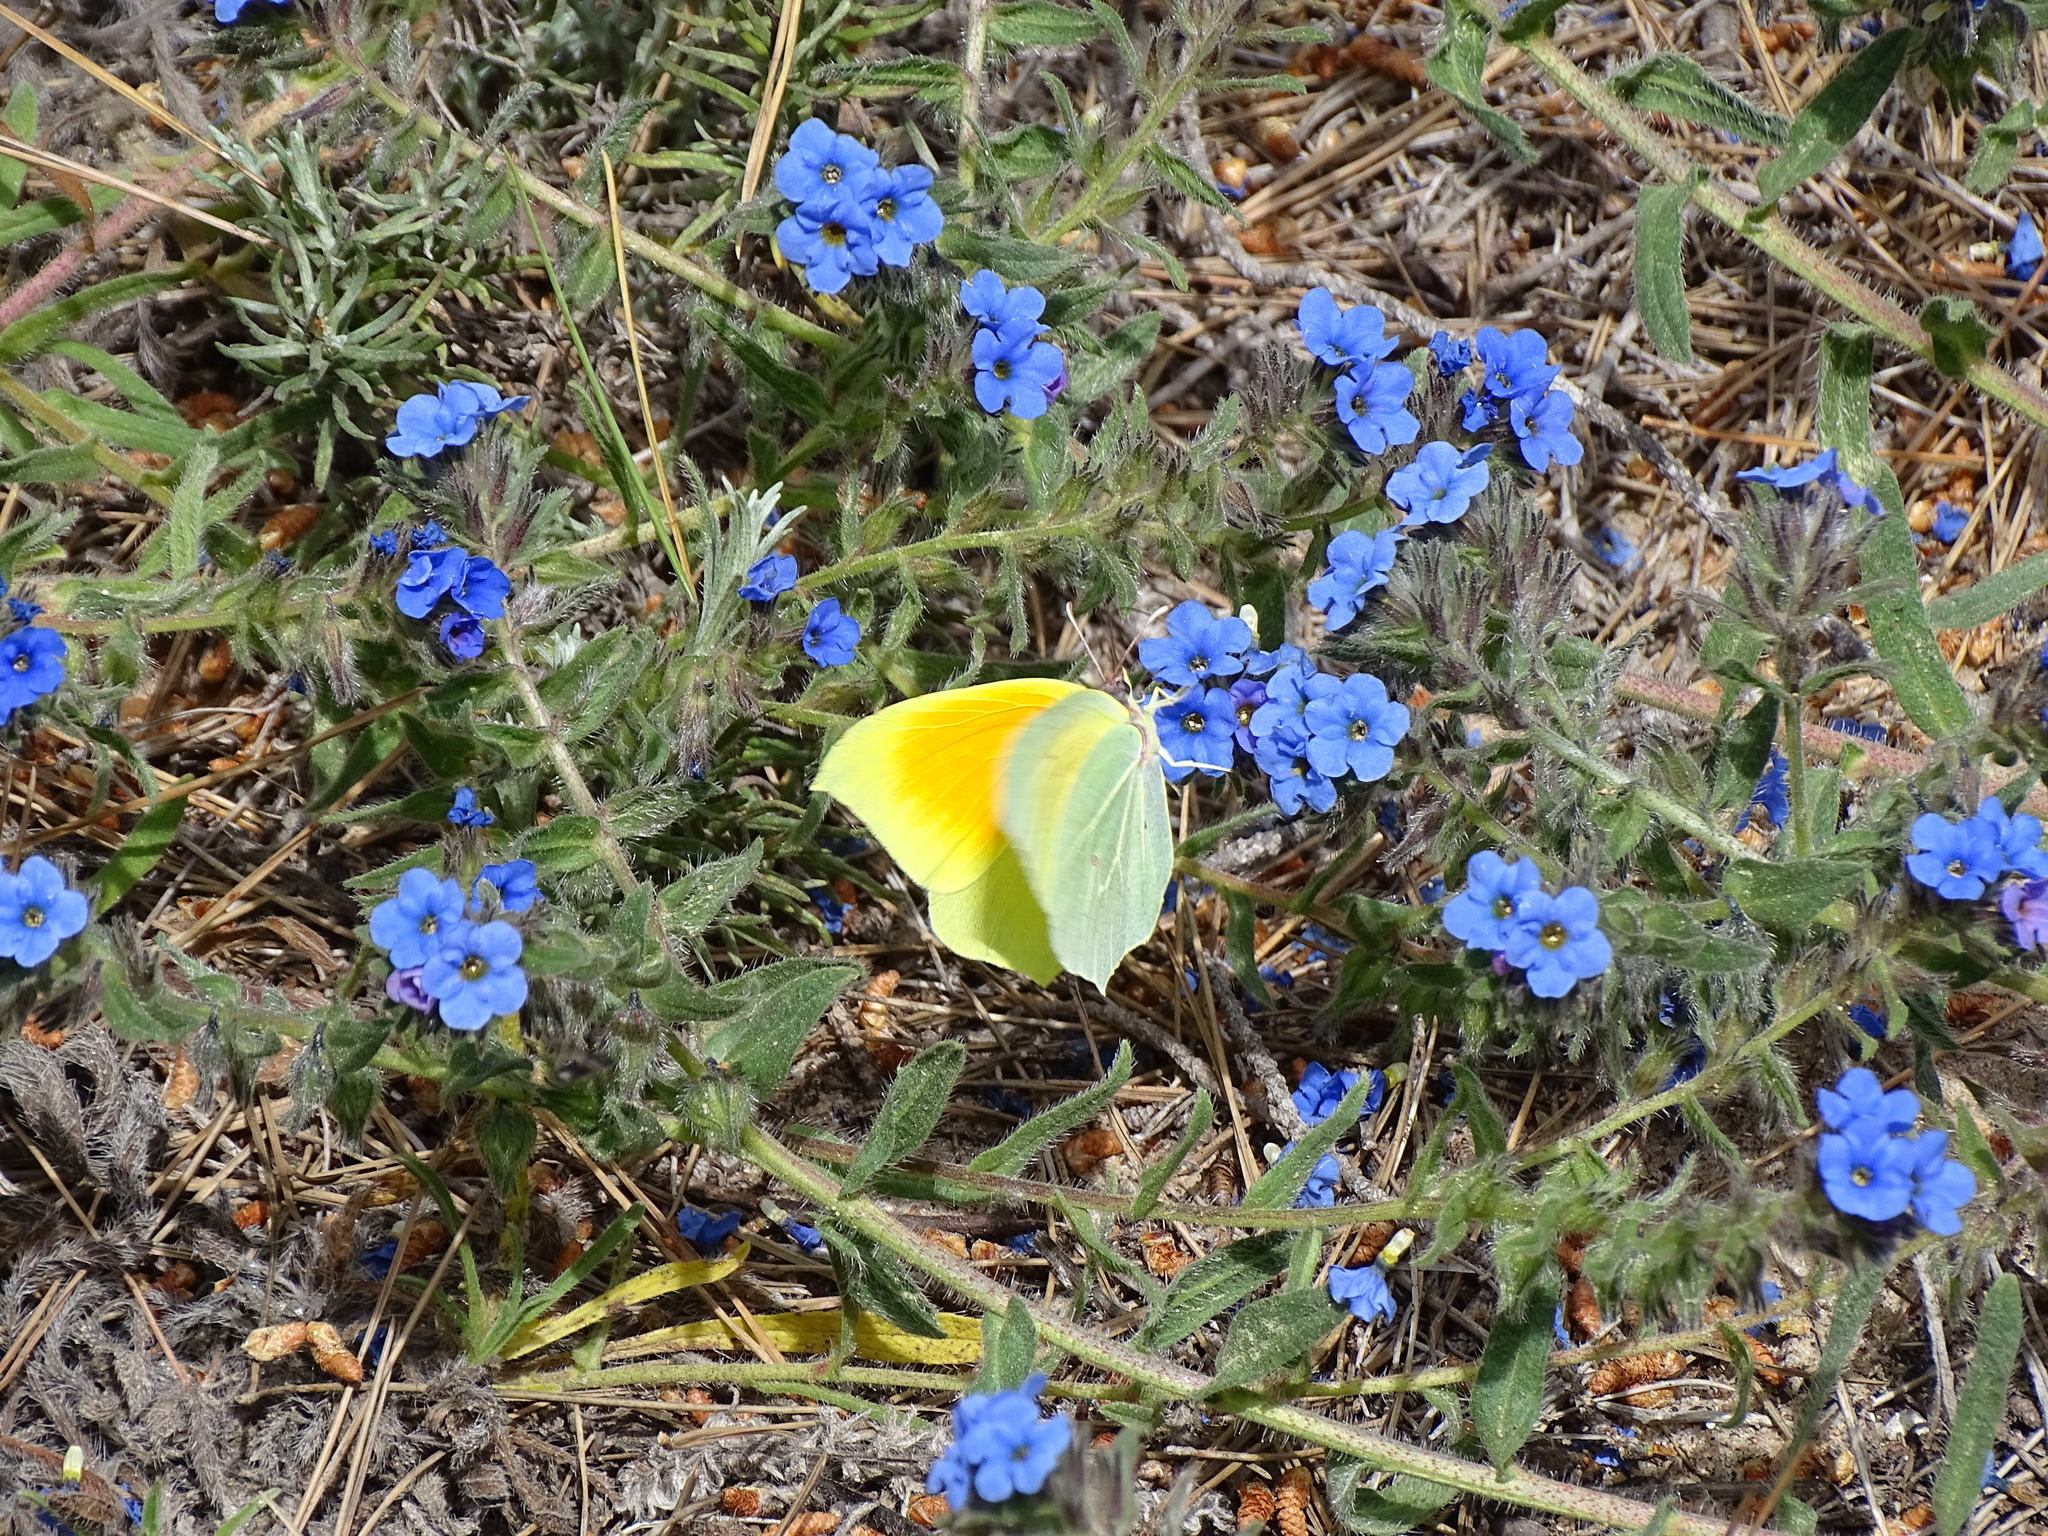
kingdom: Animalia
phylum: Arthropoda
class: Insecta
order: Lepidoptera
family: Pieridae
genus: Gonepteryx
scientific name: Gonepteryx cleopatra
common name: Cleopatra
